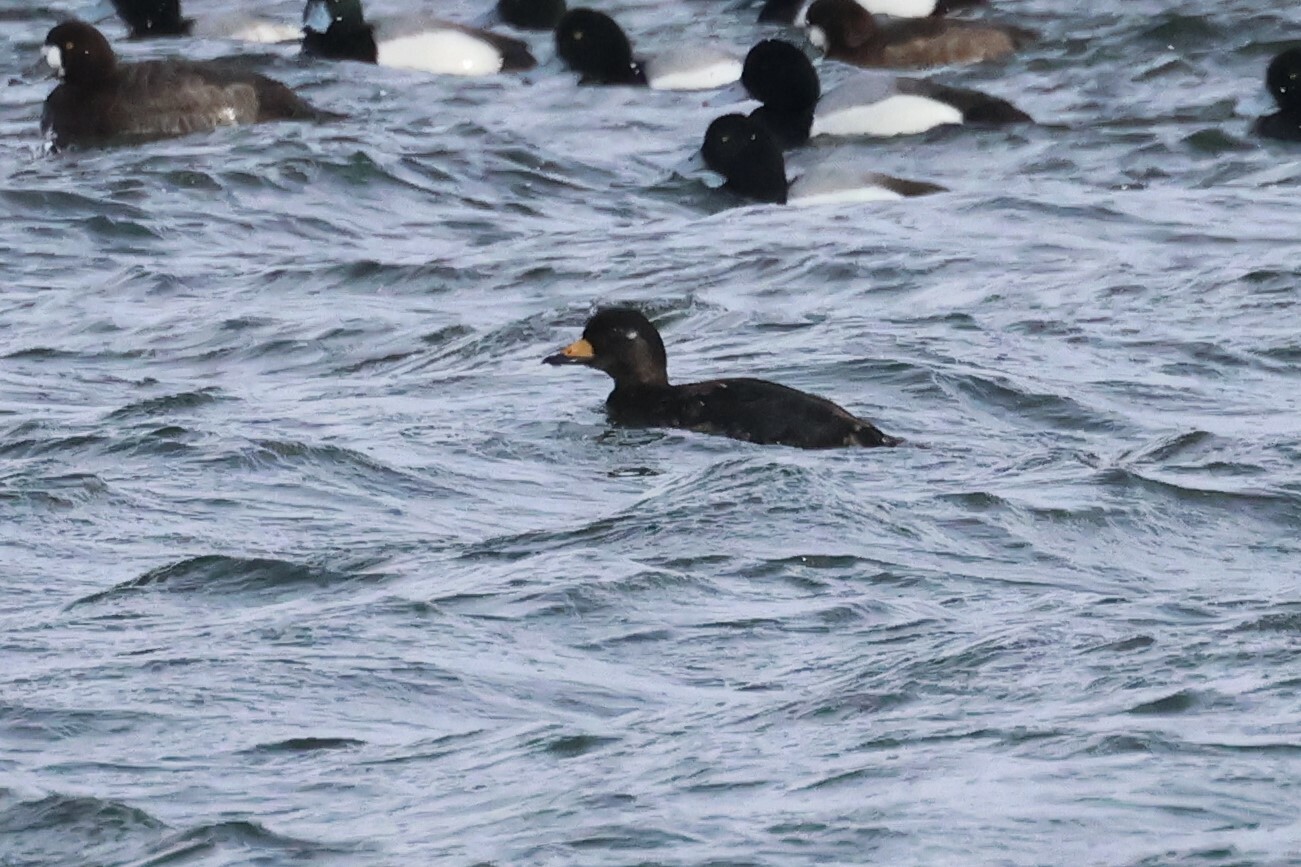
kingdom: Animalia
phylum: Chordata
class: Aves
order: Anseriformes
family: Anatidae
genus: Melanitta
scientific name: Melanitta americana
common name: Black scoter
